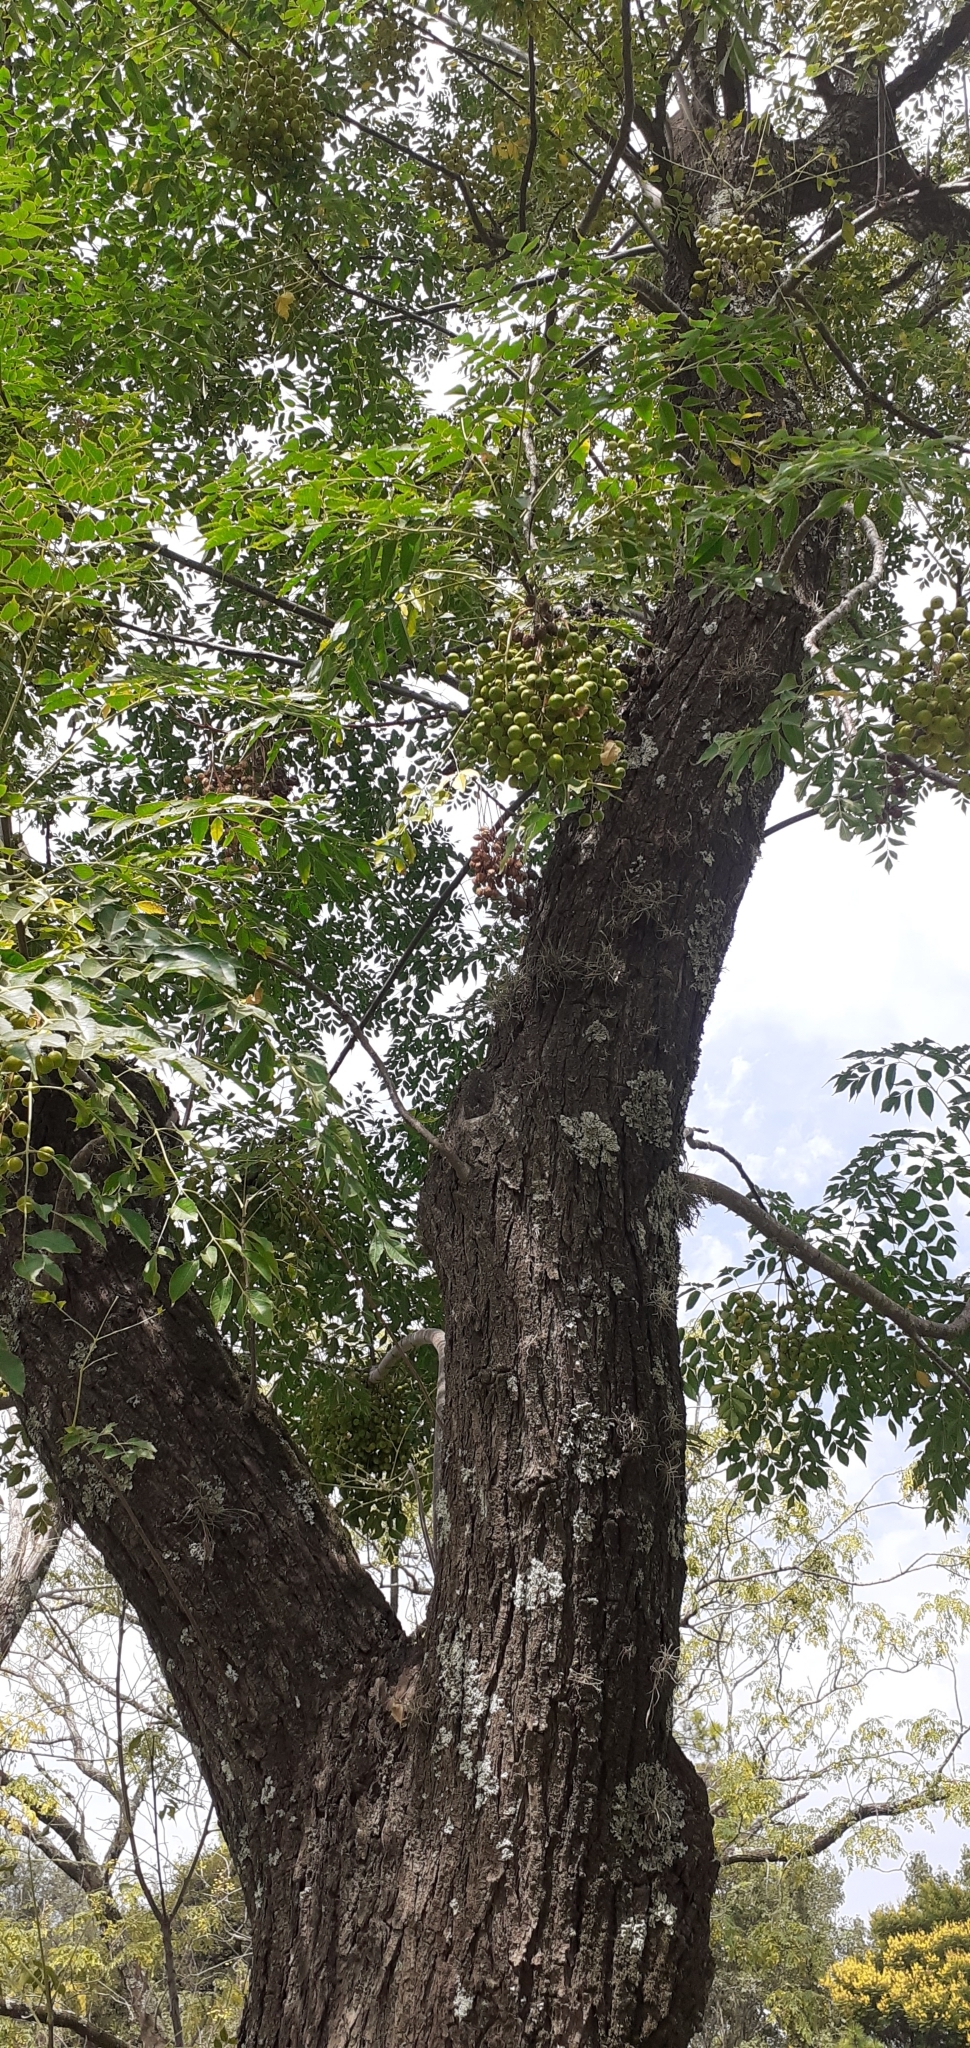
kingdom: Plantae
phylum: Tracheophyta
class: Magnoliopsida
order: Sapindales
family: Meliaceae
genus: Melia
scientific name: Melia azedarach
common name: Chinaberrytree
